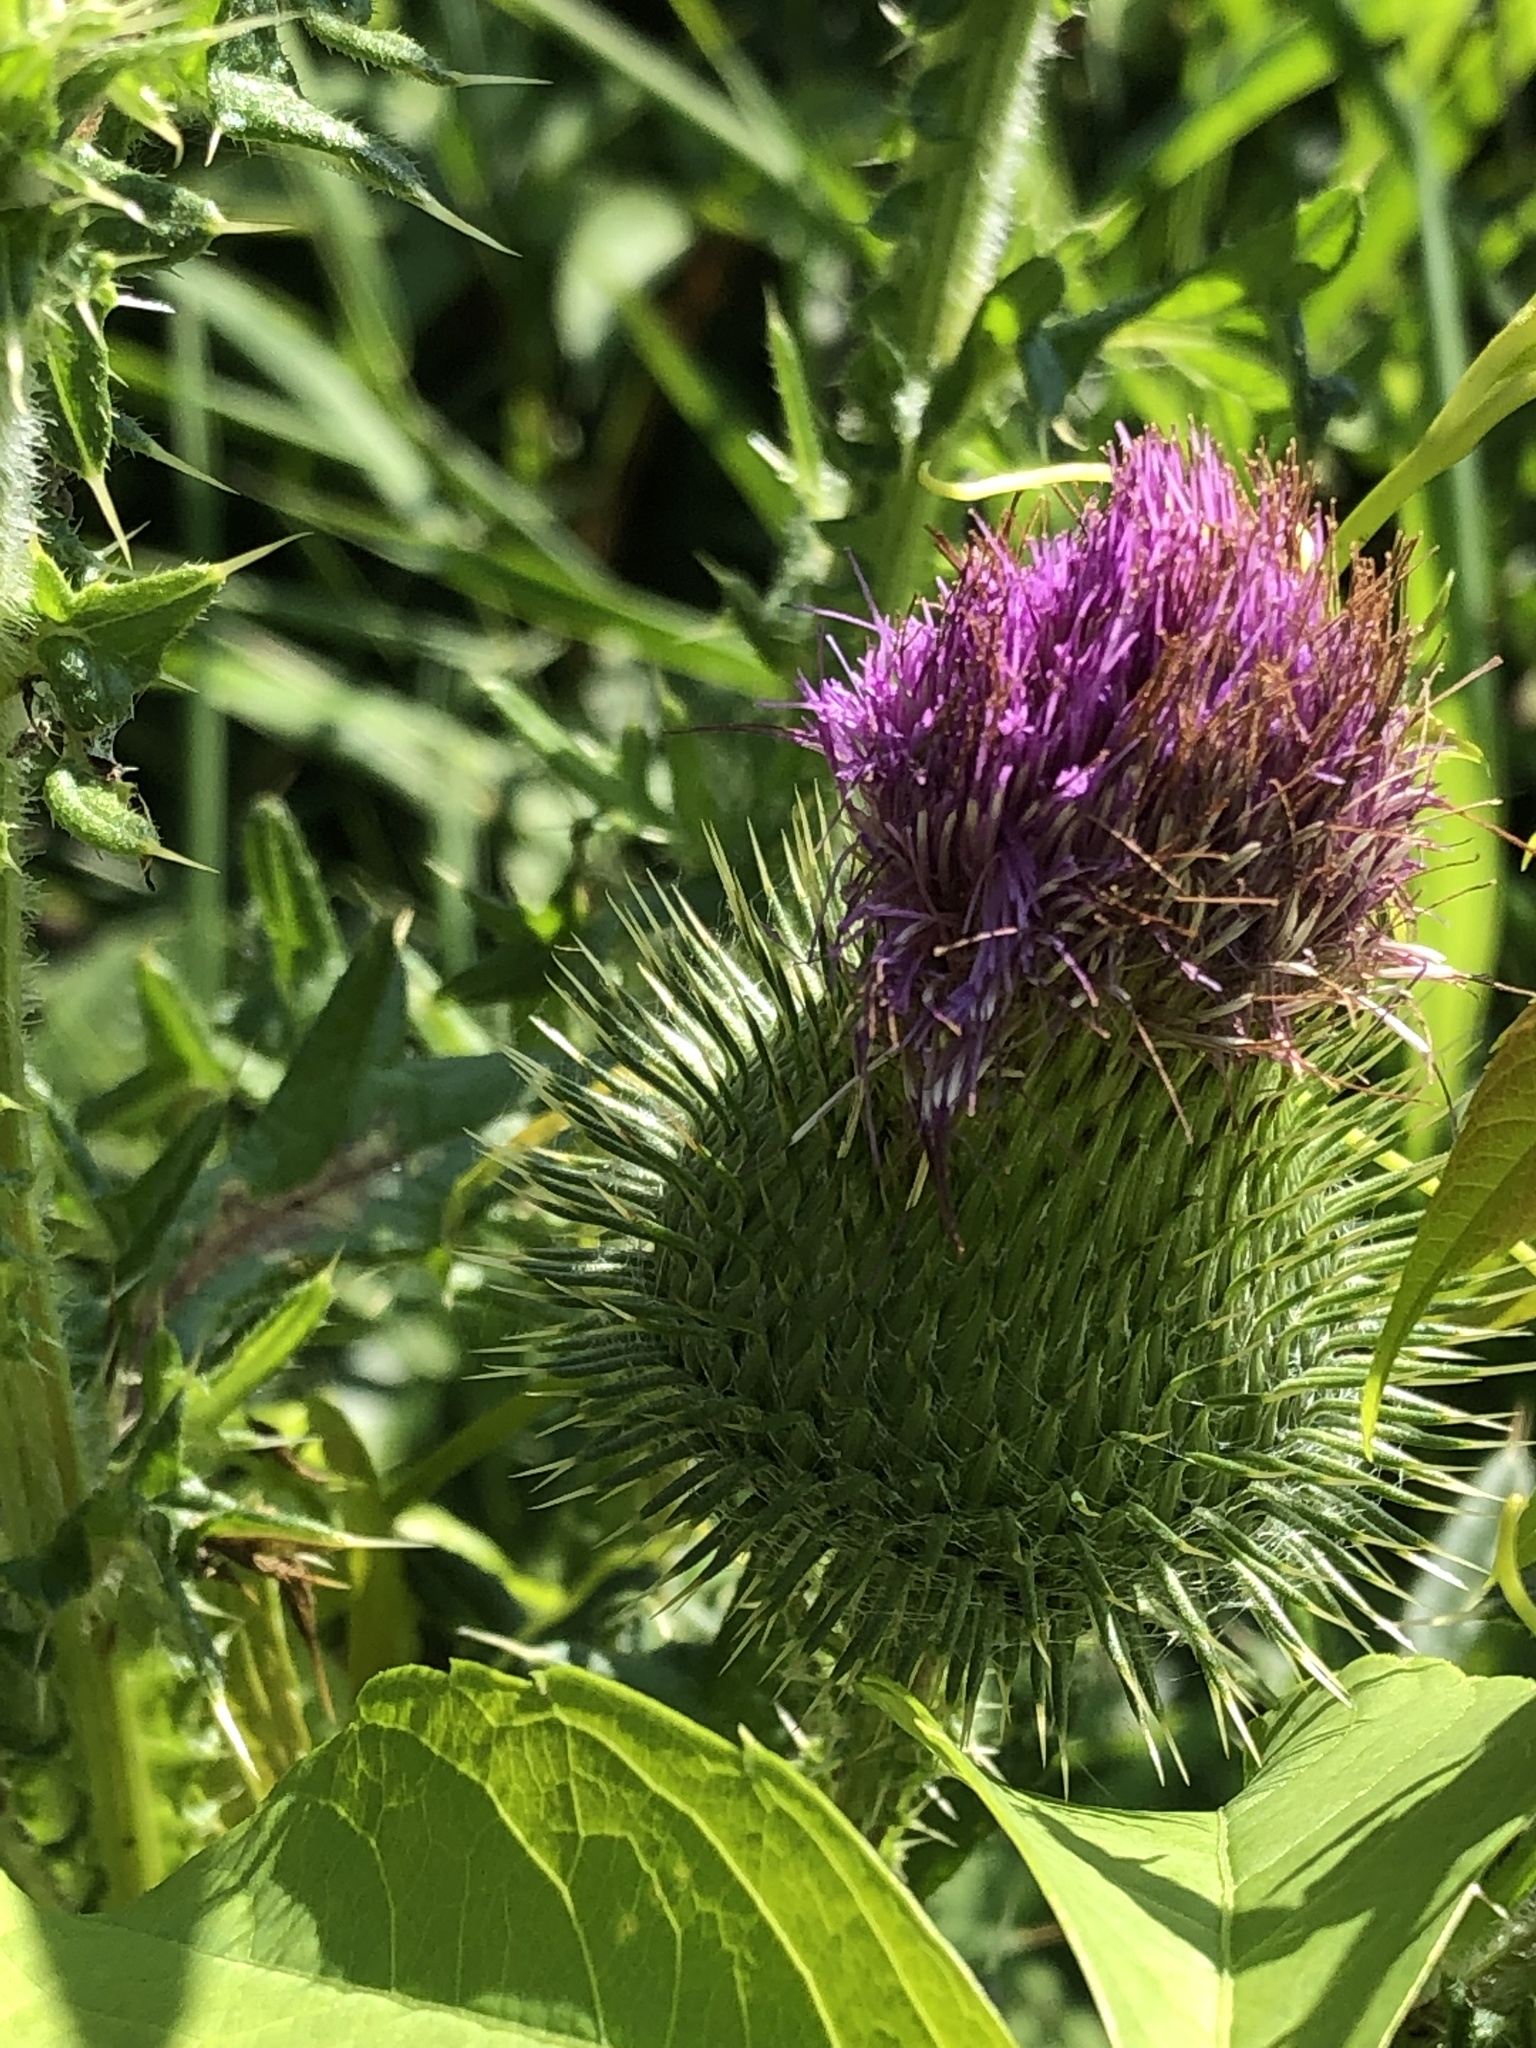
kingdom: Plantae
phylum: Tracheophyta
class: Magnoliopsida
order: Asterales
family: Asteraceae
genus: Cirsium
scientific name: Cirsium vulgare
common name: Bull thistle
